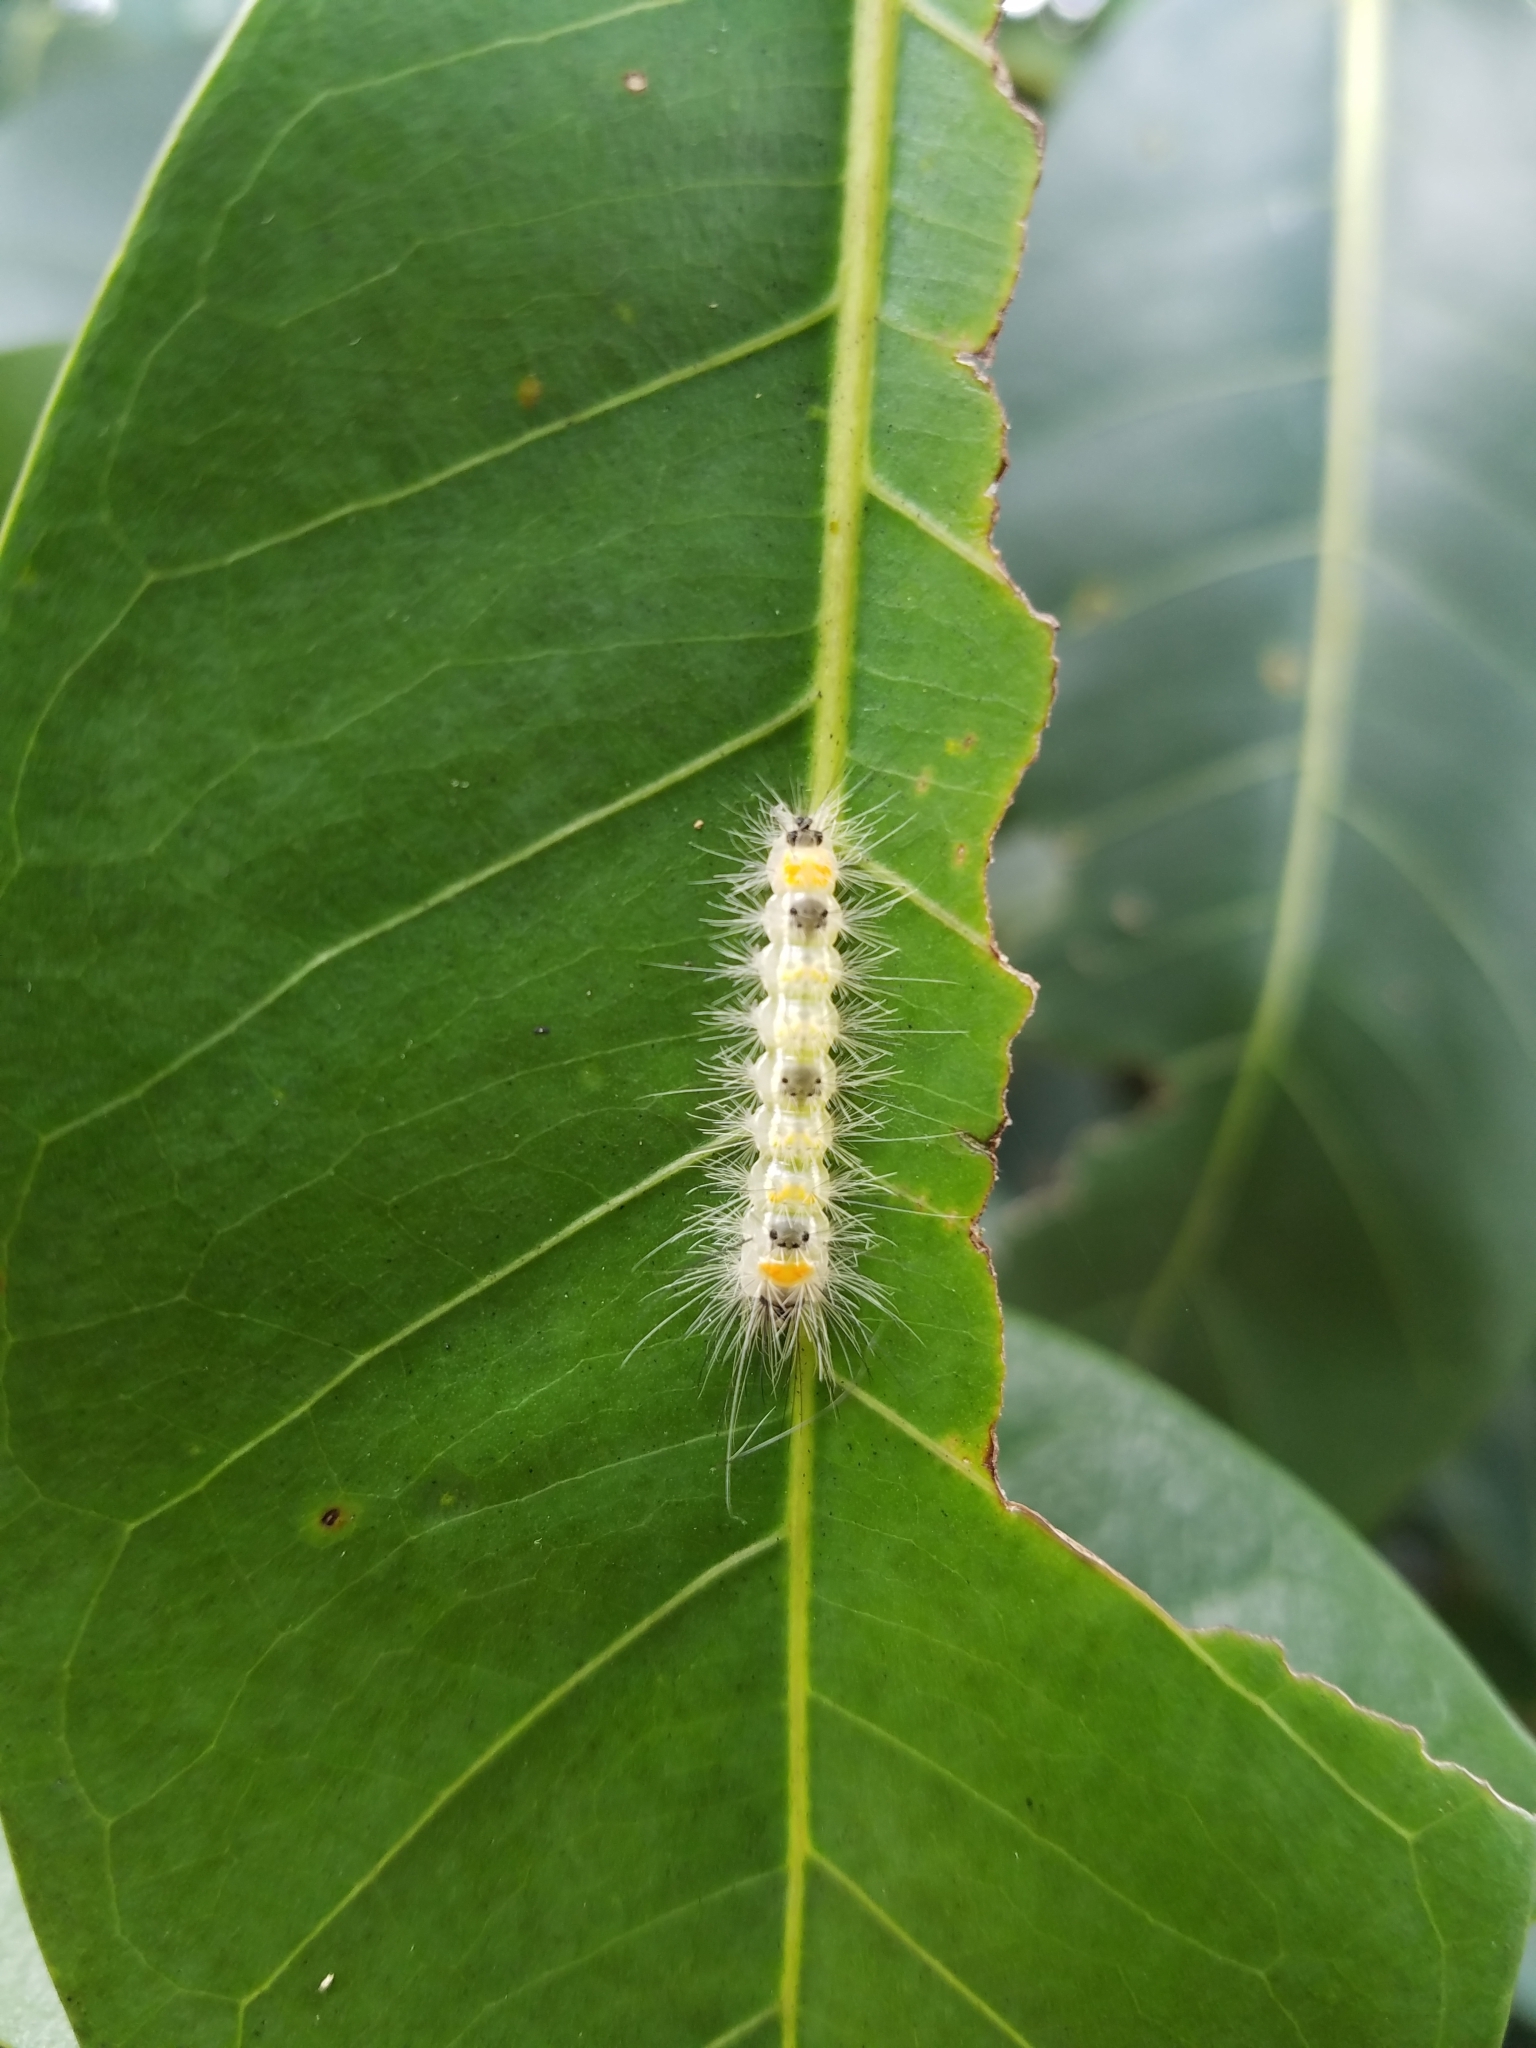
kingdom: Animalia
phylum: Arthropoda
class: Insecta
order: Lepidoptera
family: Erebidae
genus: Lymire
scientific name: Lymire edwardsii
